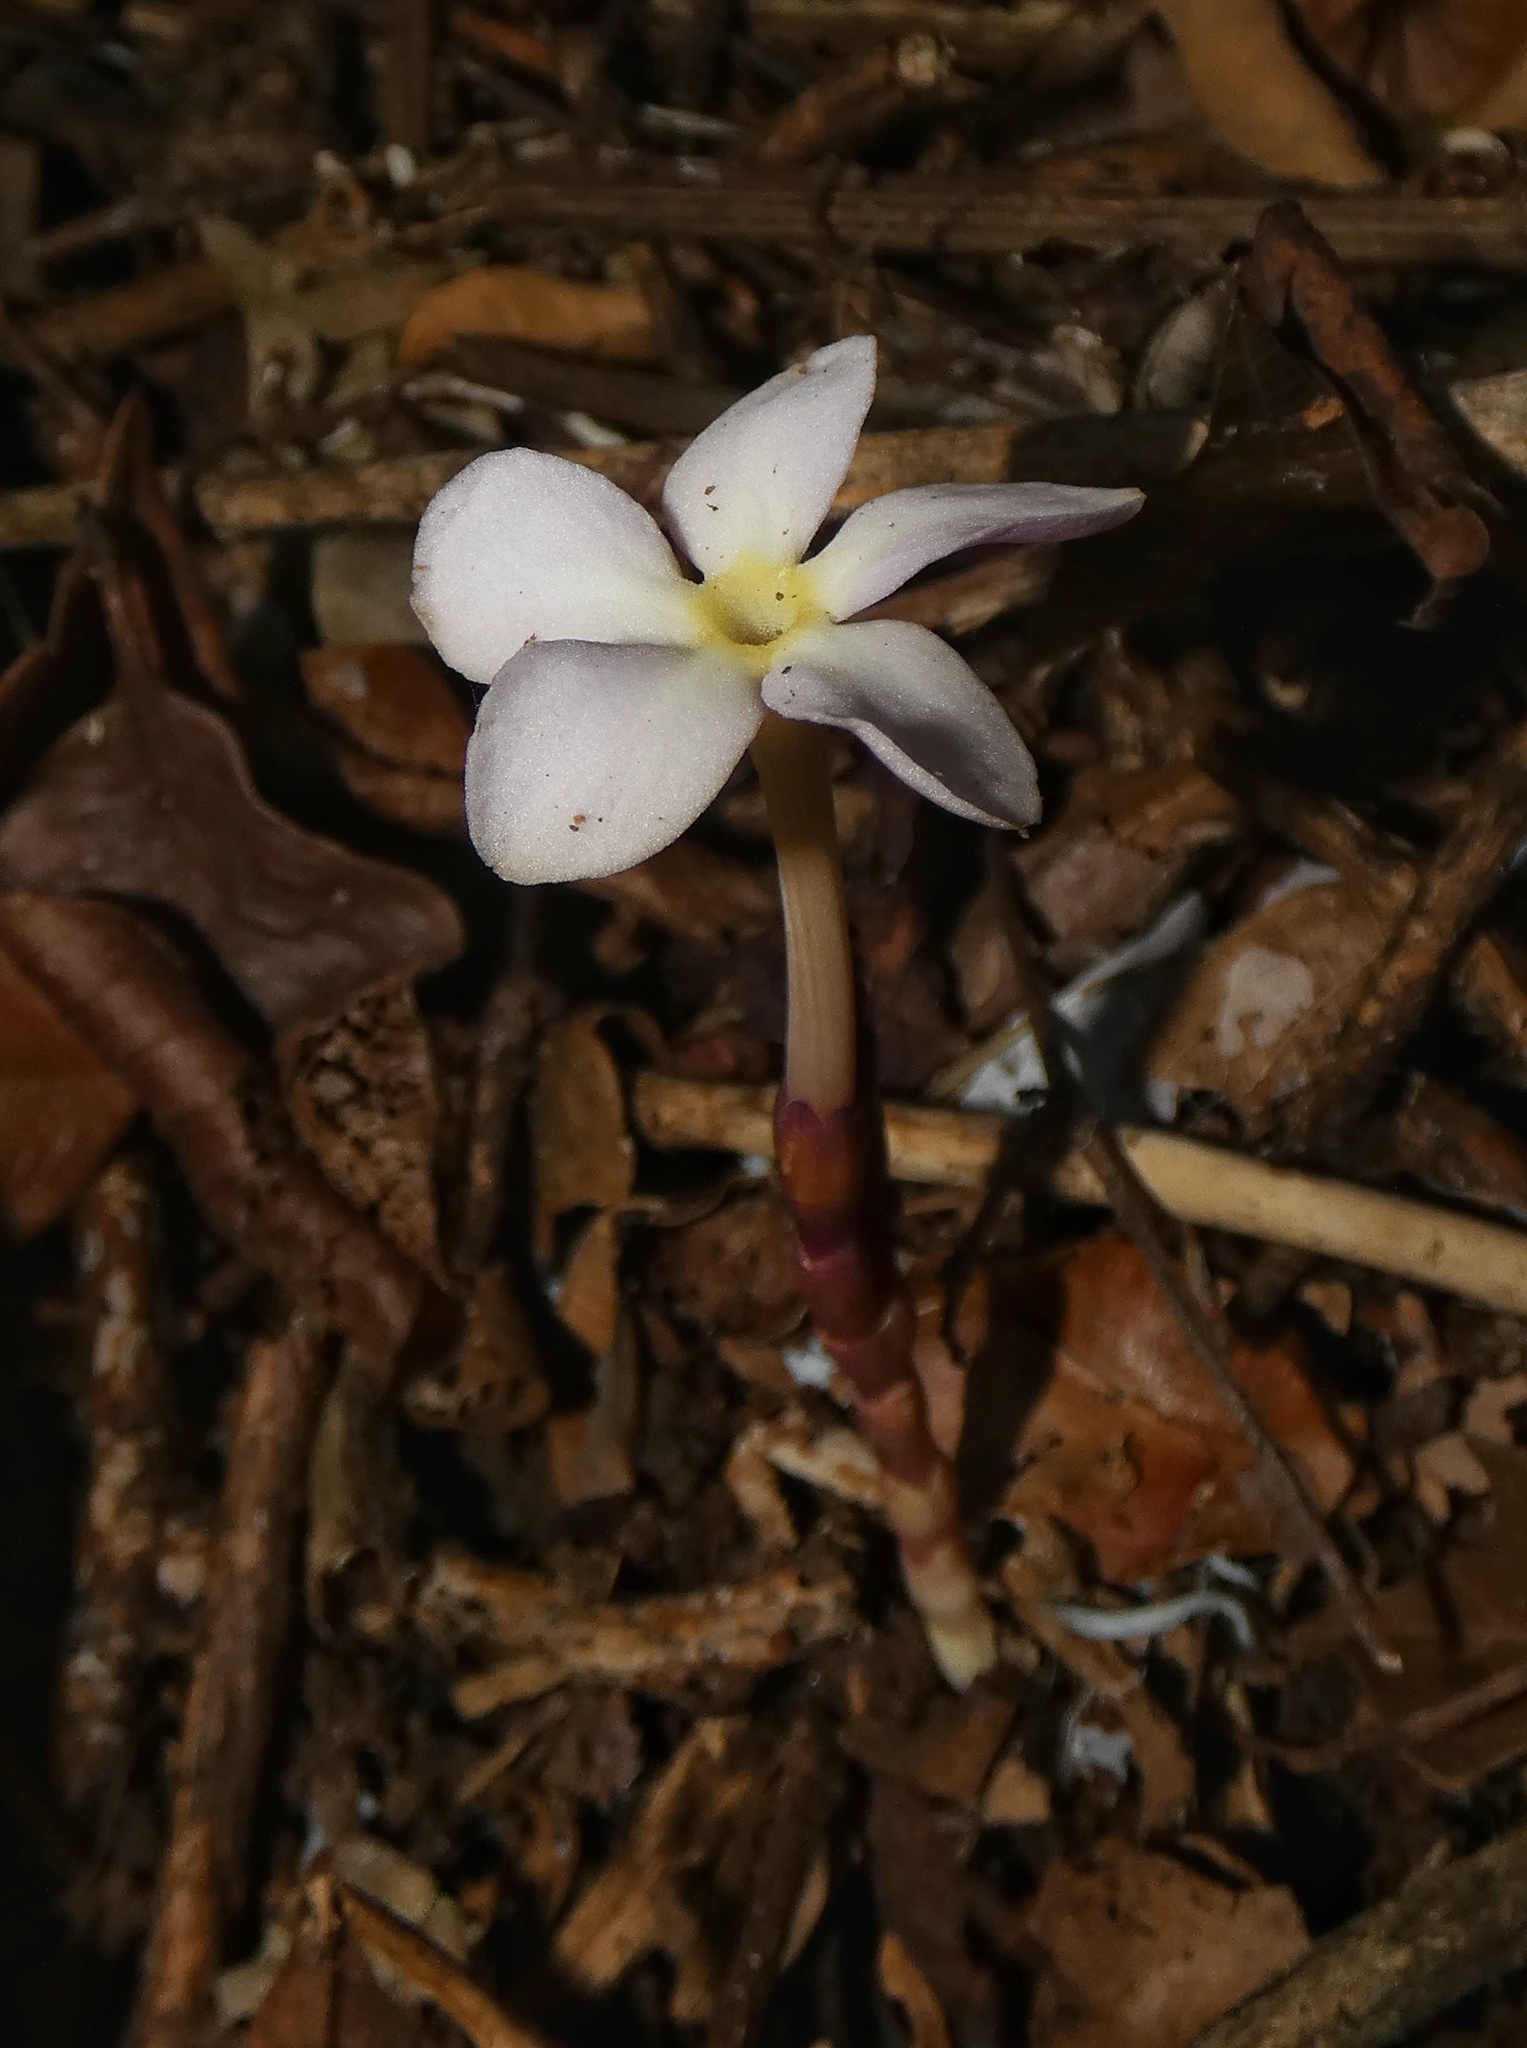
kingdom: Plantae
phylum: Tracheophyta
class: Magnoliopsida
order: Gentianales
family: Gentianaceae
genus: Voyria
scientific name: Voyria truncata
